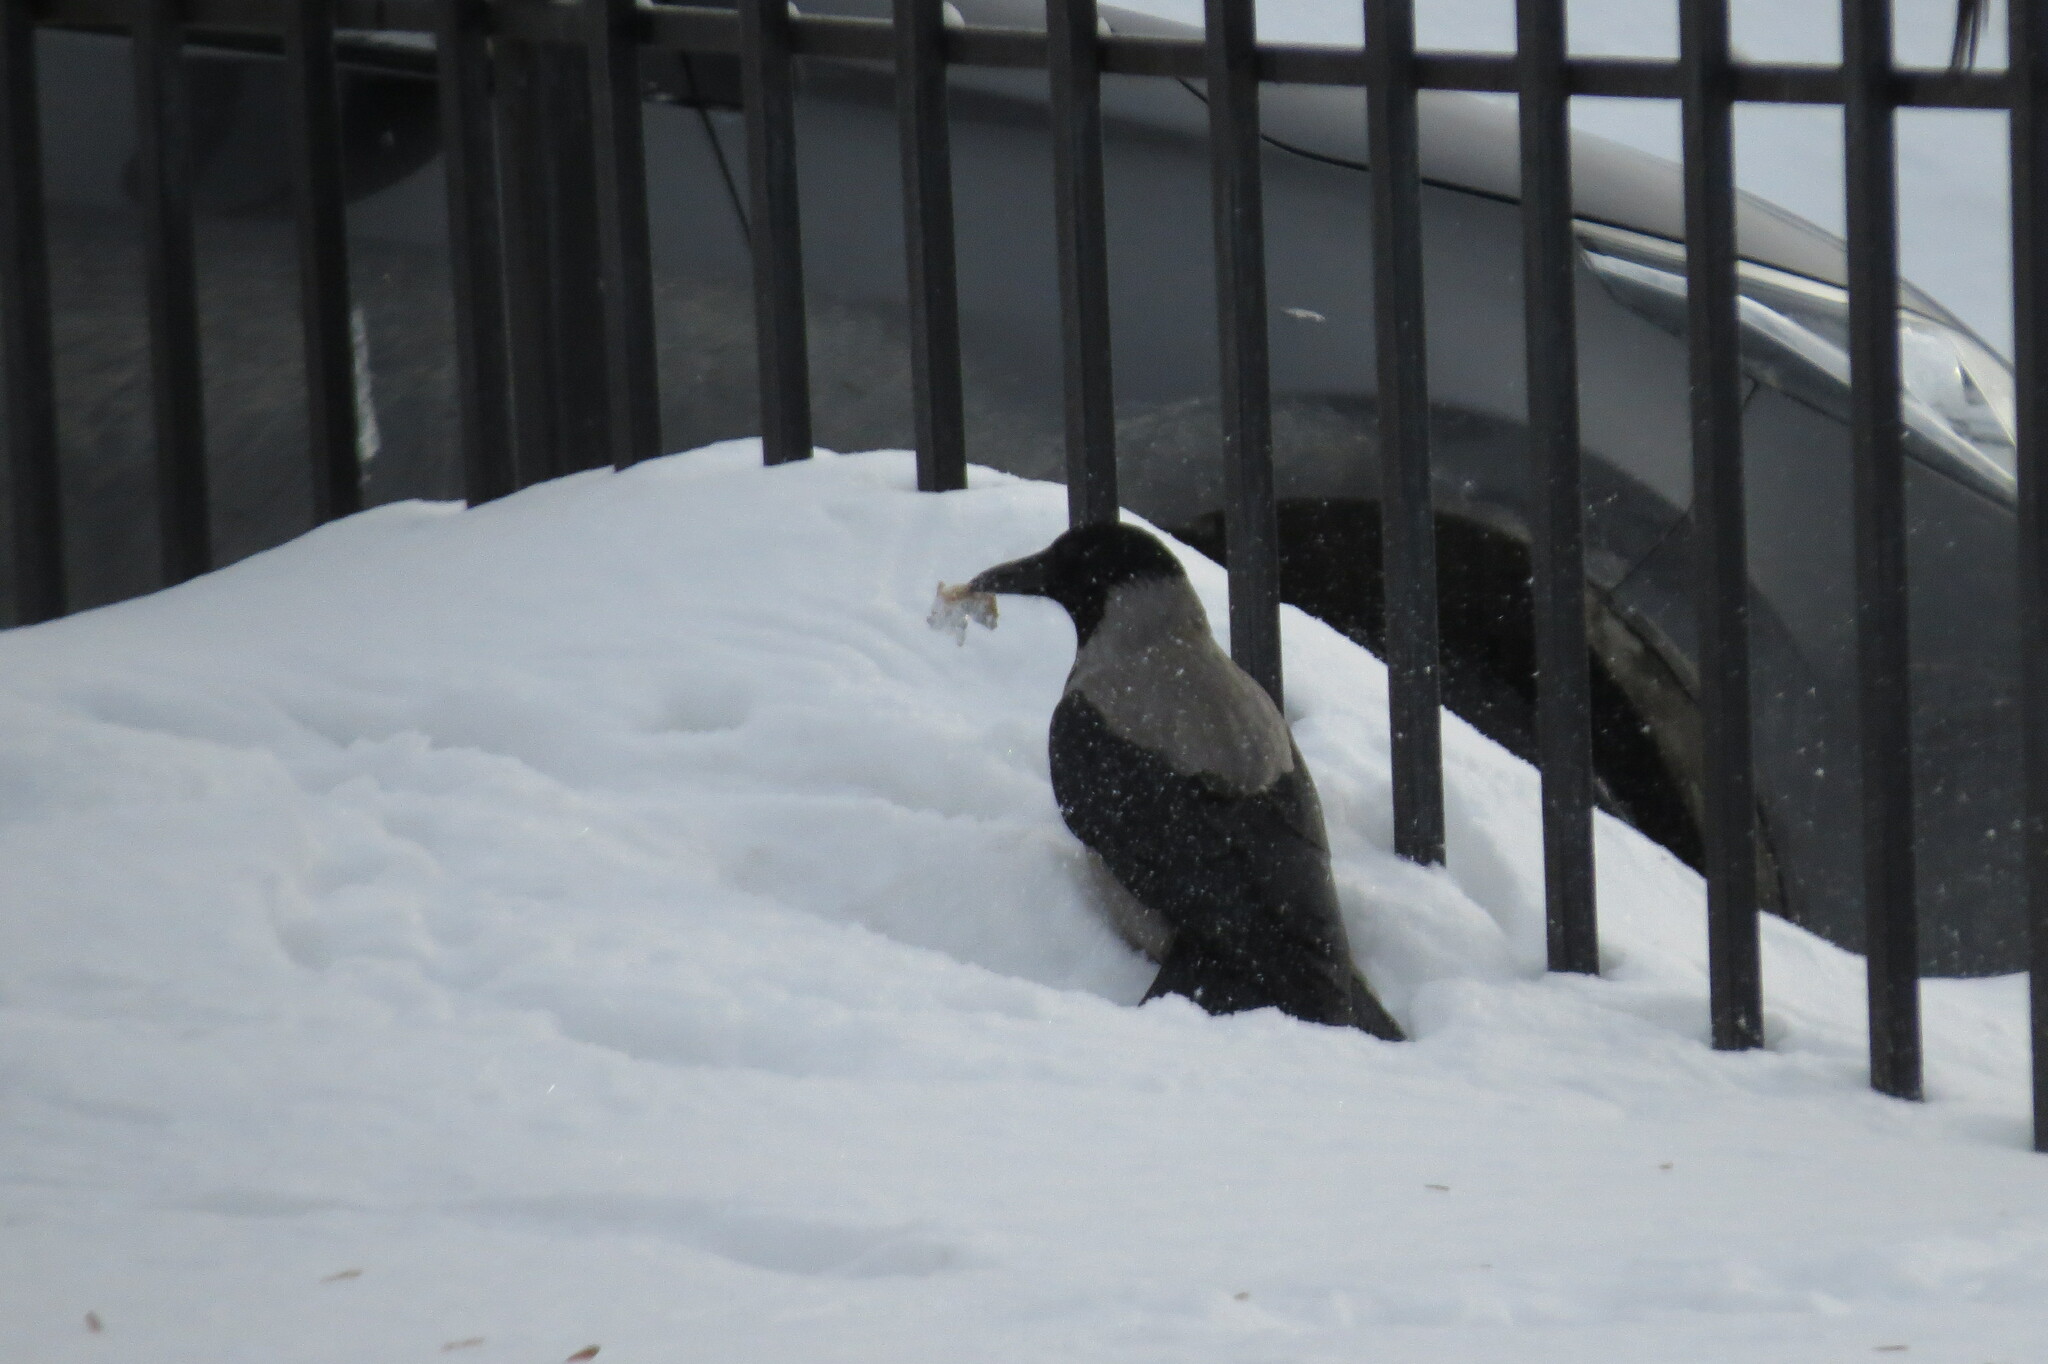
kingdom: Animalia
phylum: Chordata
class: Aves
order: Passeriformes
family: Corvidae
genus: Corvus
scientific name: Corvus cornix
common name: Hooded crow
